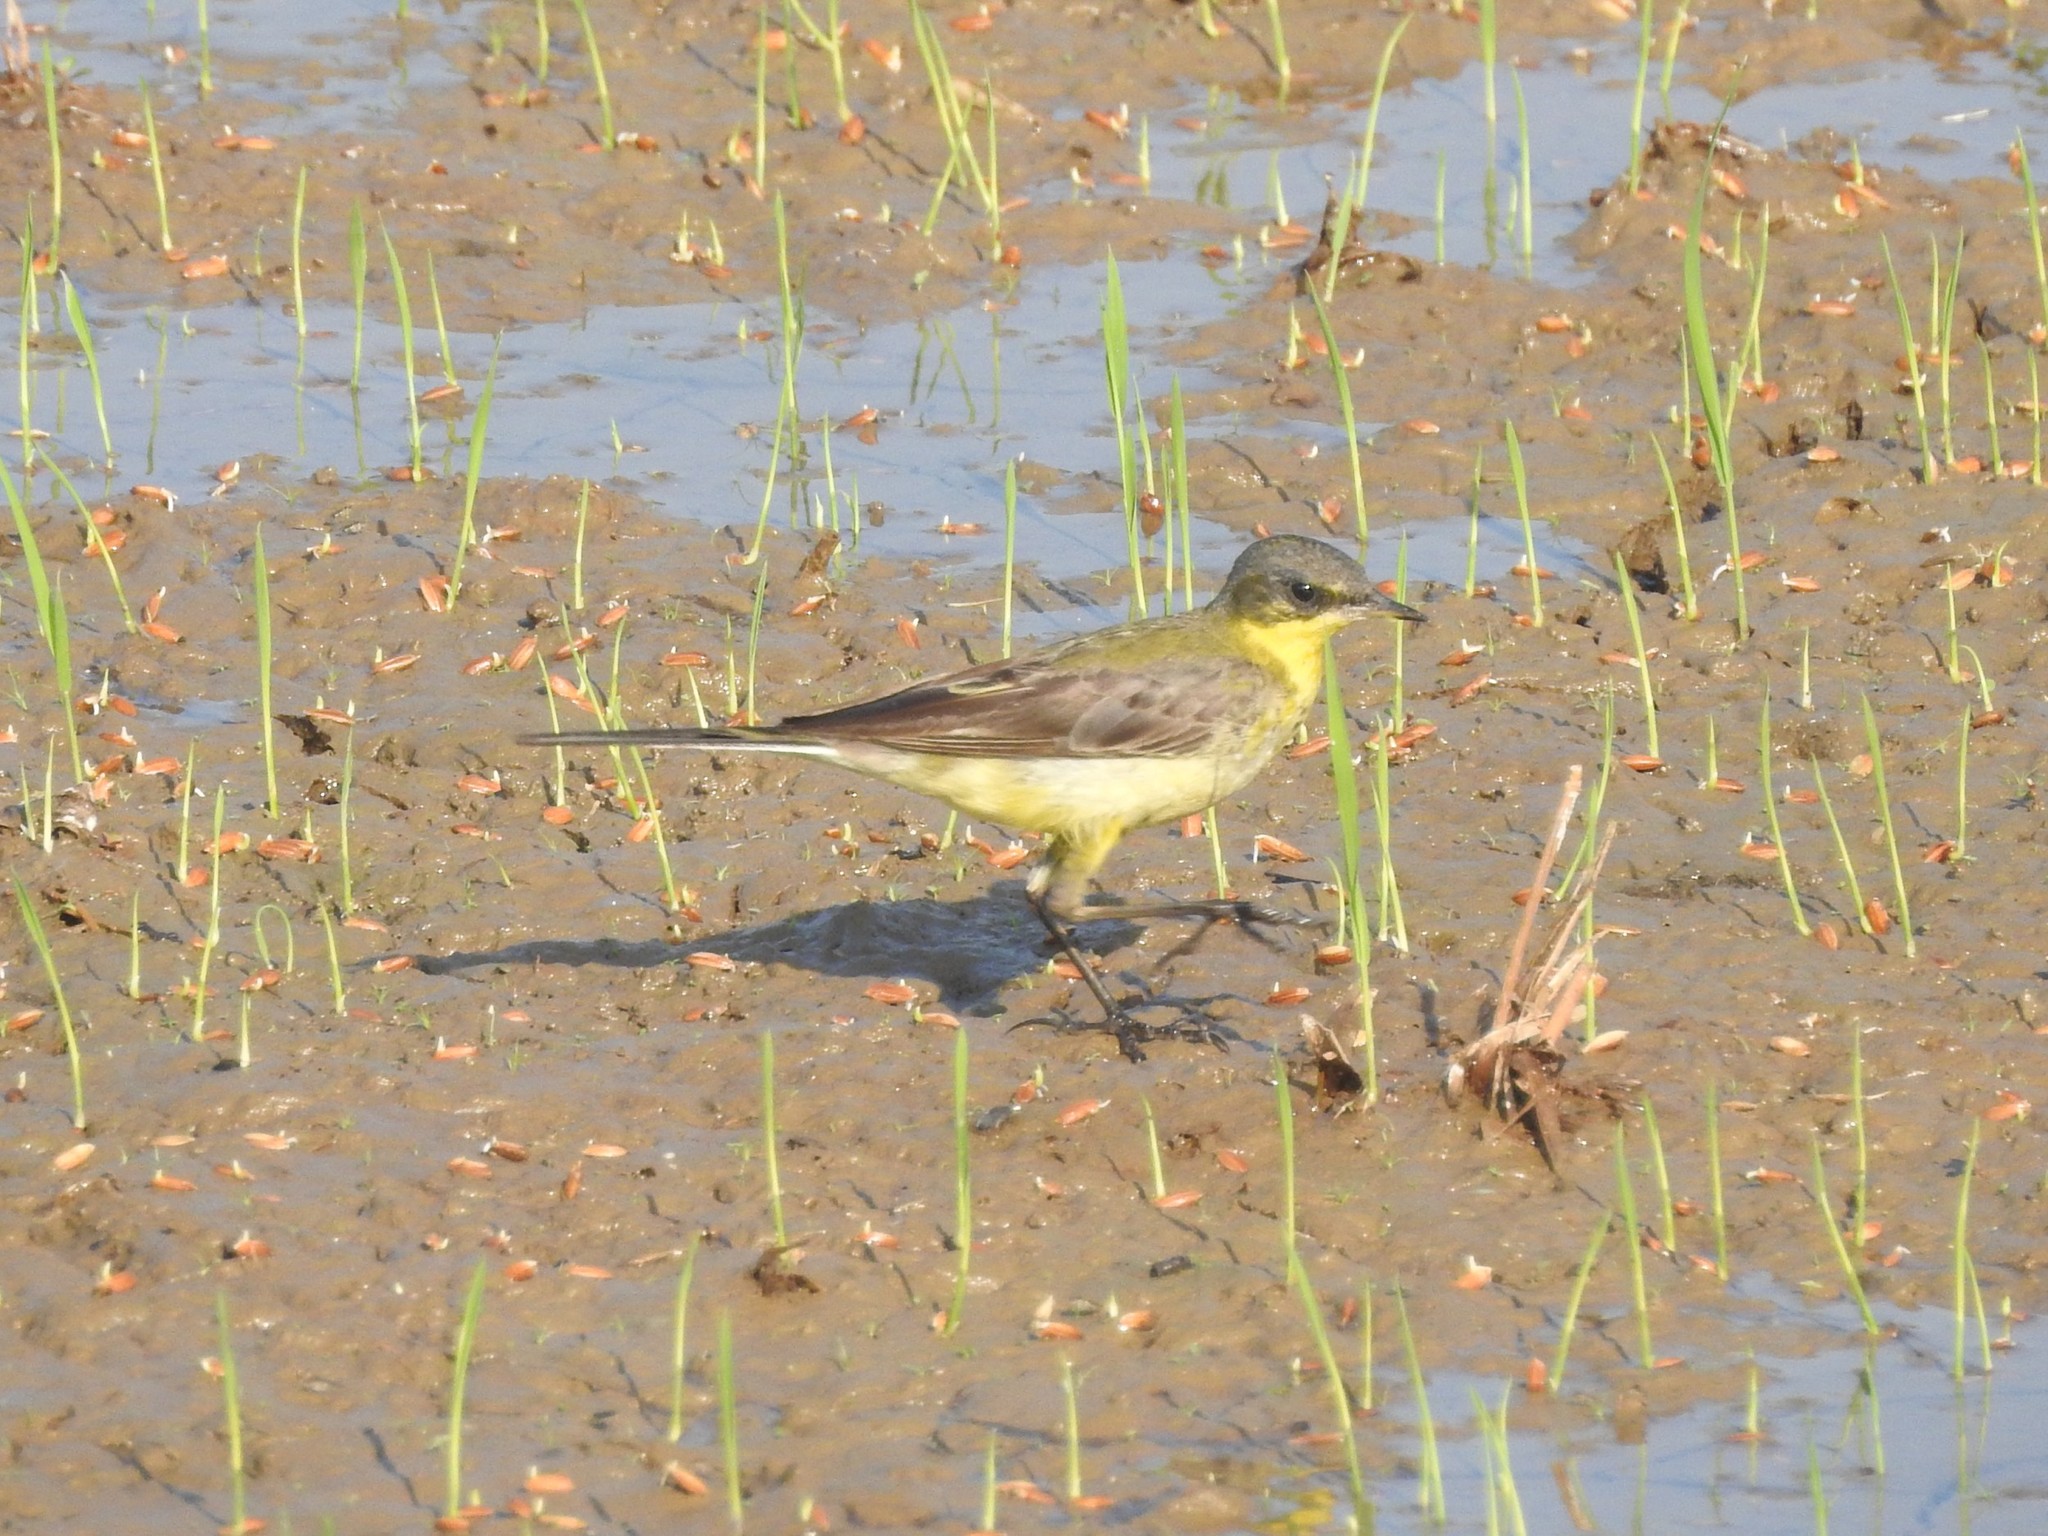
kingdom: Animalia
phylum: Chordata
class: Aves
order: Passeriformes
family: Motacillidae
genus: Motacilla
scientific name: Motacilla flava
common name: Western yellow wagtail
